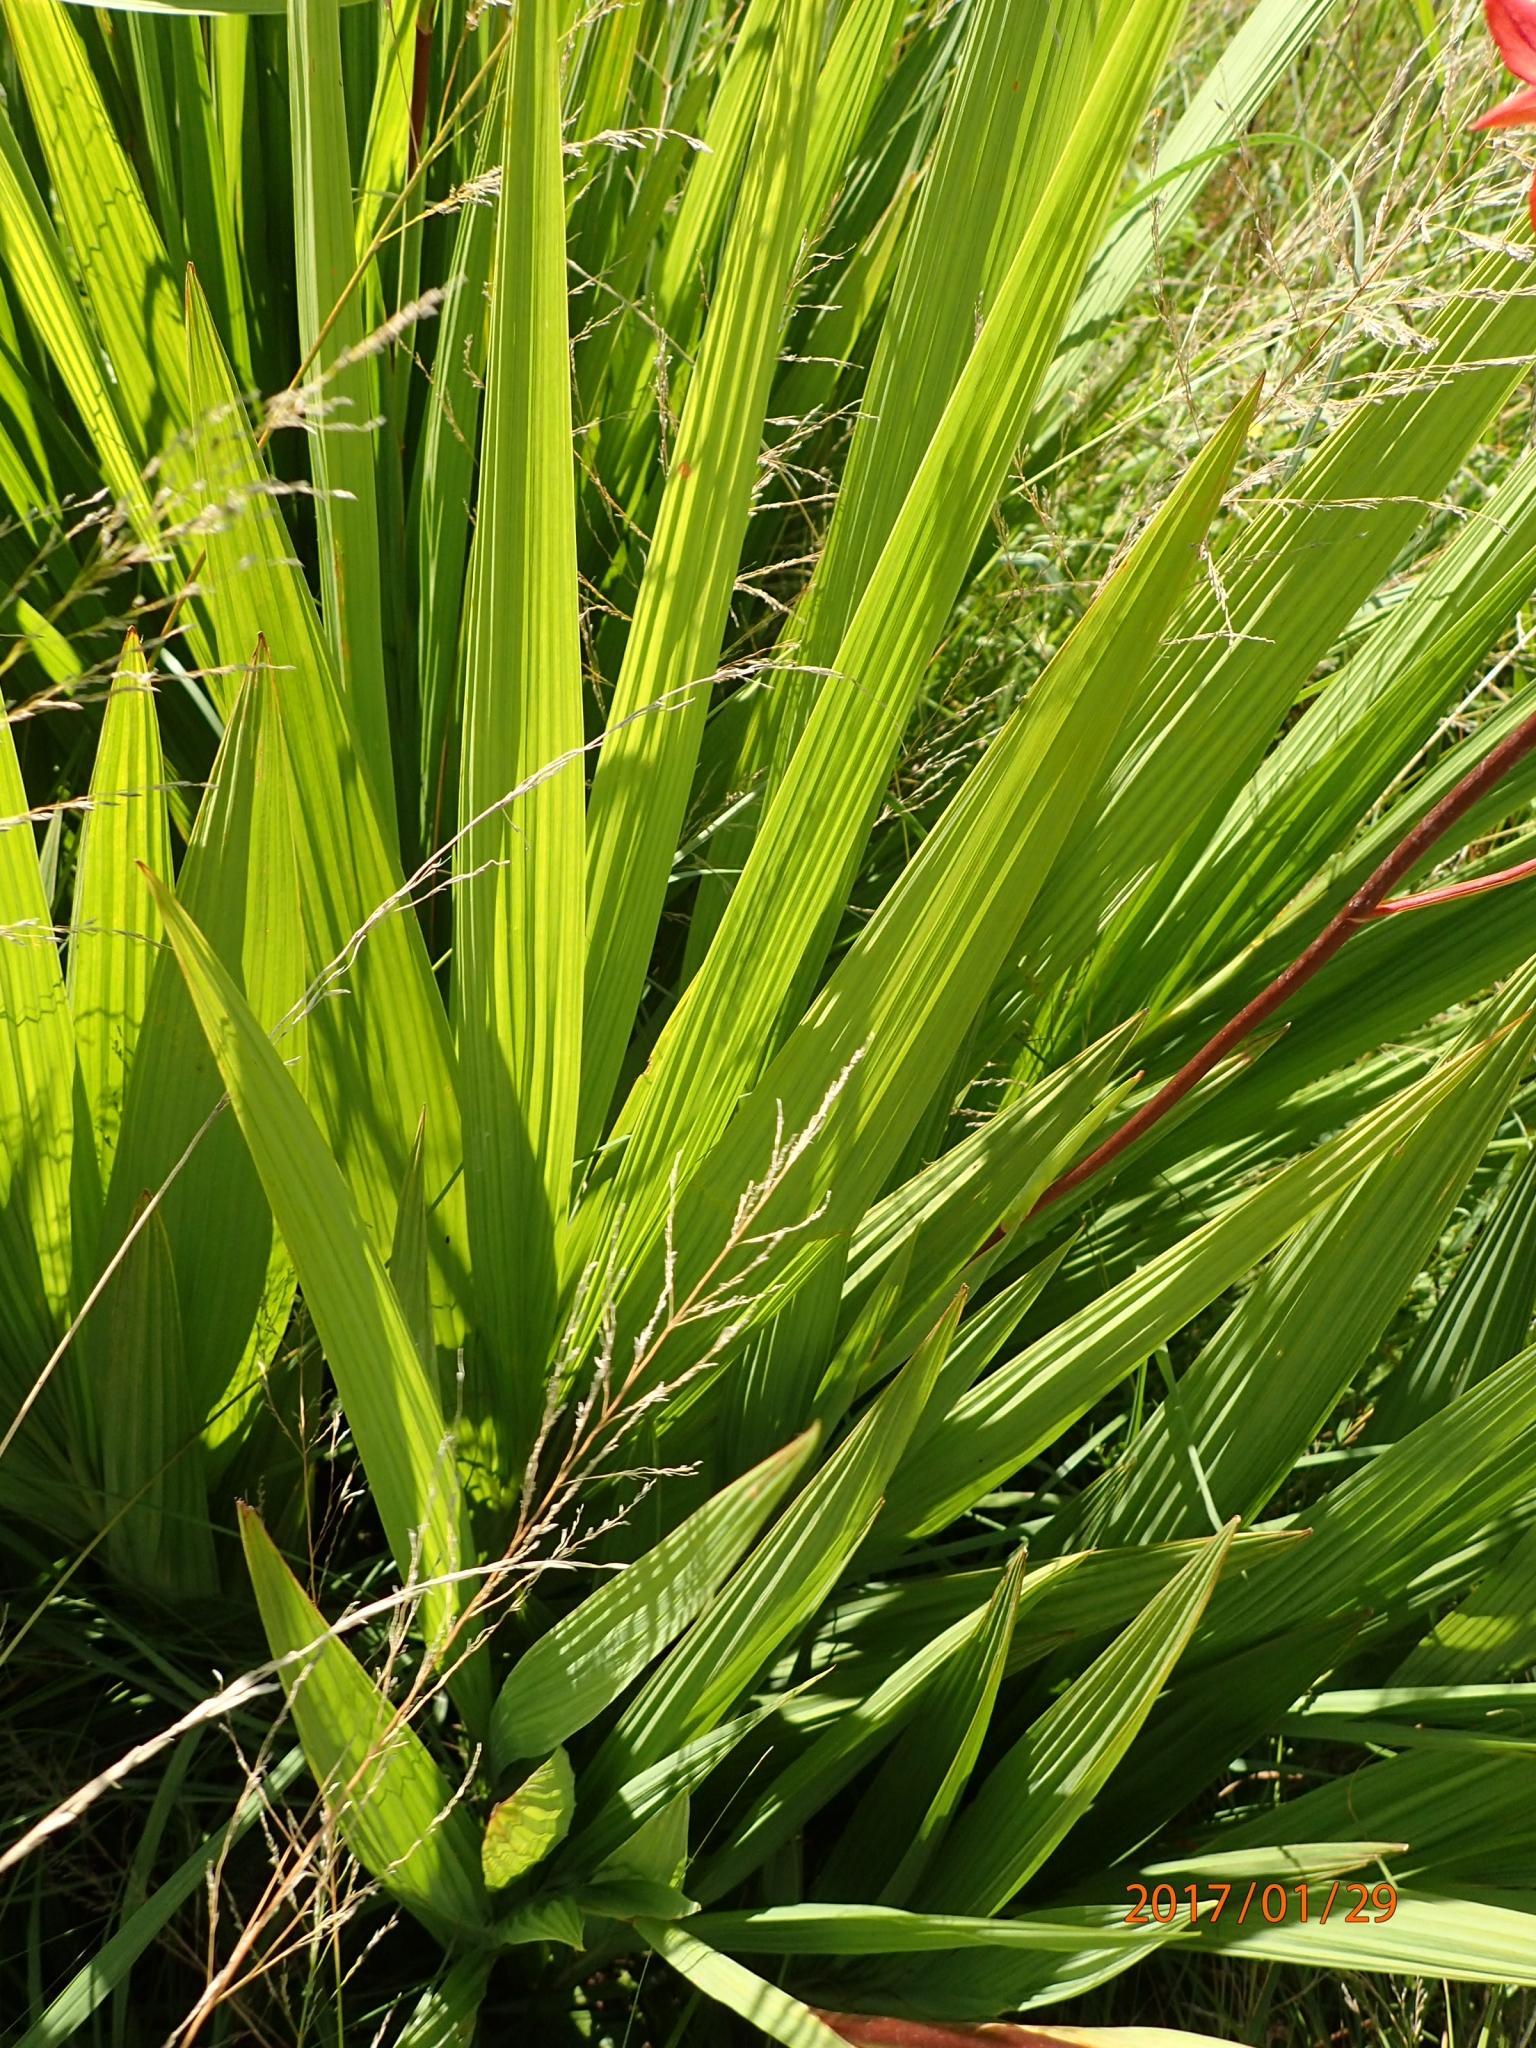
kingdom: Plantae
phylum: Tracheophyta
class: Liliopsida
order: Asparagales
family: Iridaceae
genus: Crocosmia
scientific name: Crocosmia paniculata
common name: Aunt eliza
